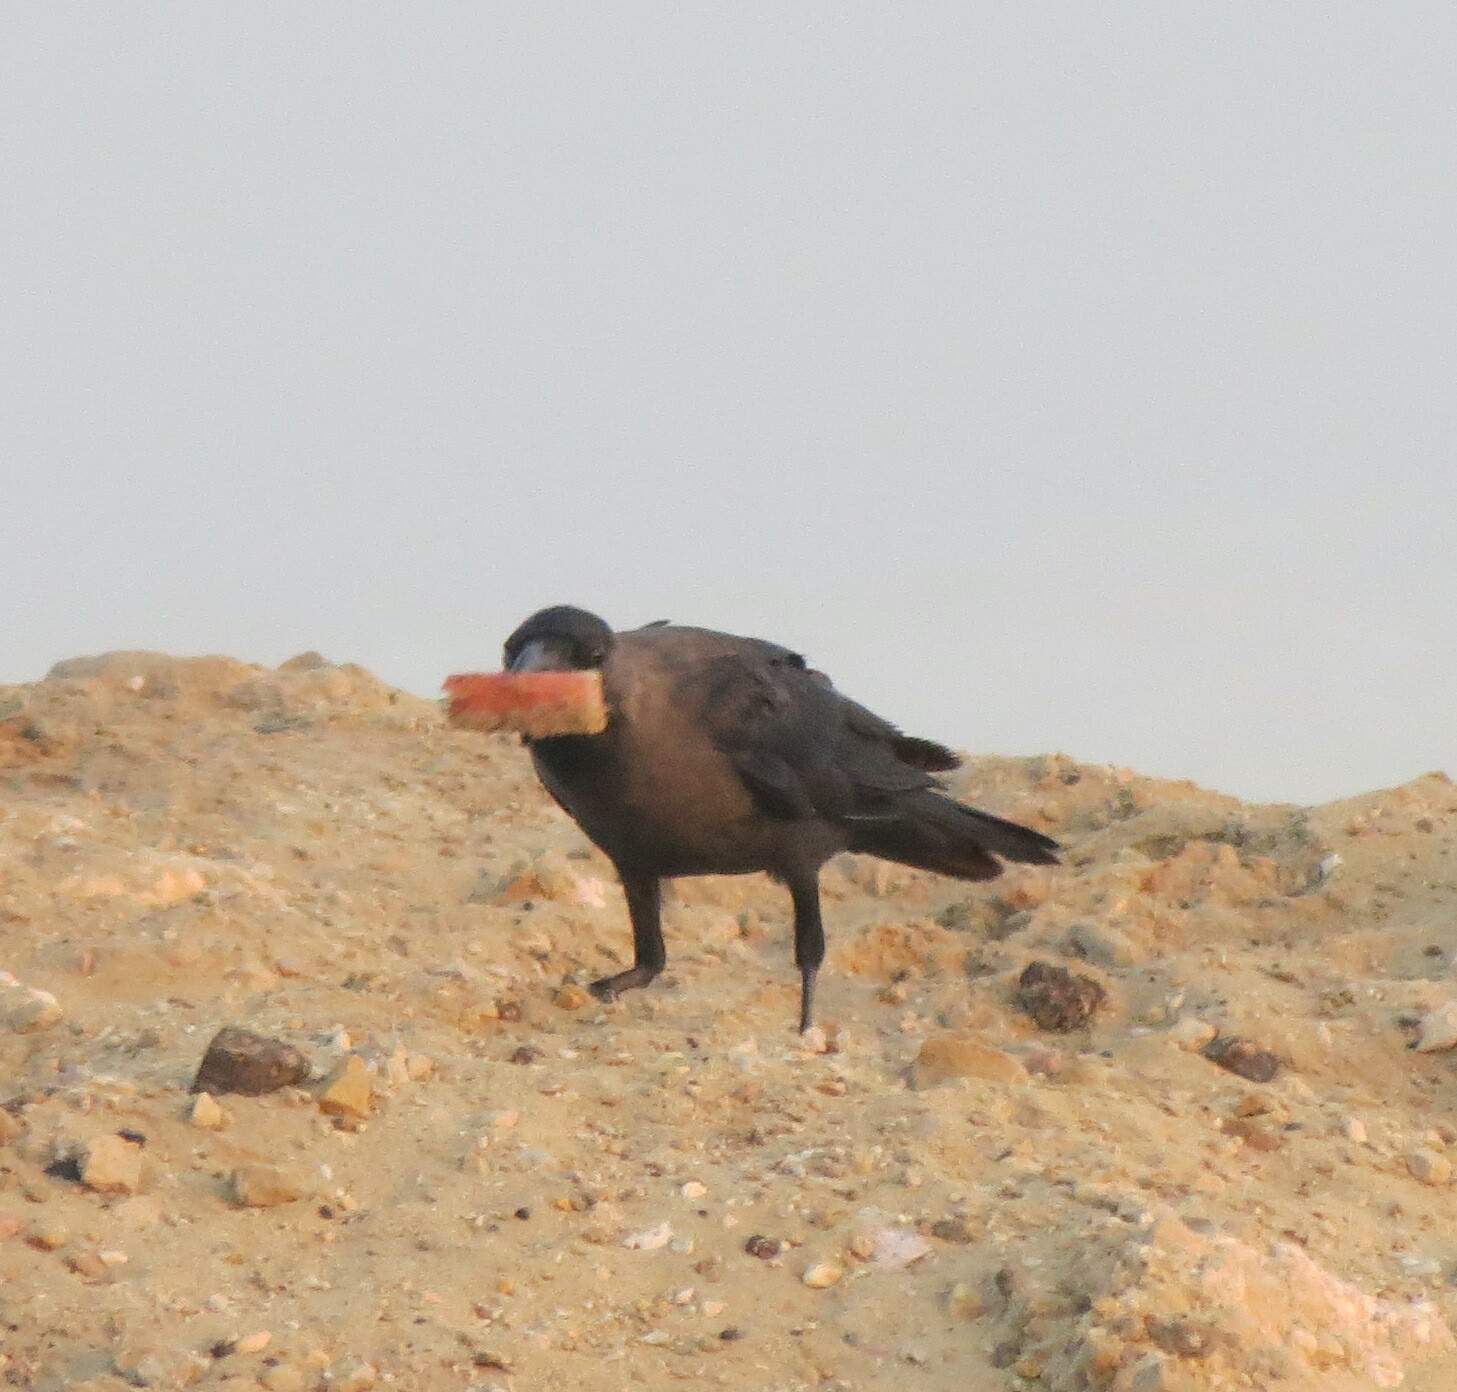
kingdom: Animalia
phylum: Chordata
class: Aves
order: Passeriformes
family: Corvidae
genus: Corvus
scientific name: Corvus splendens
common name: House crow
